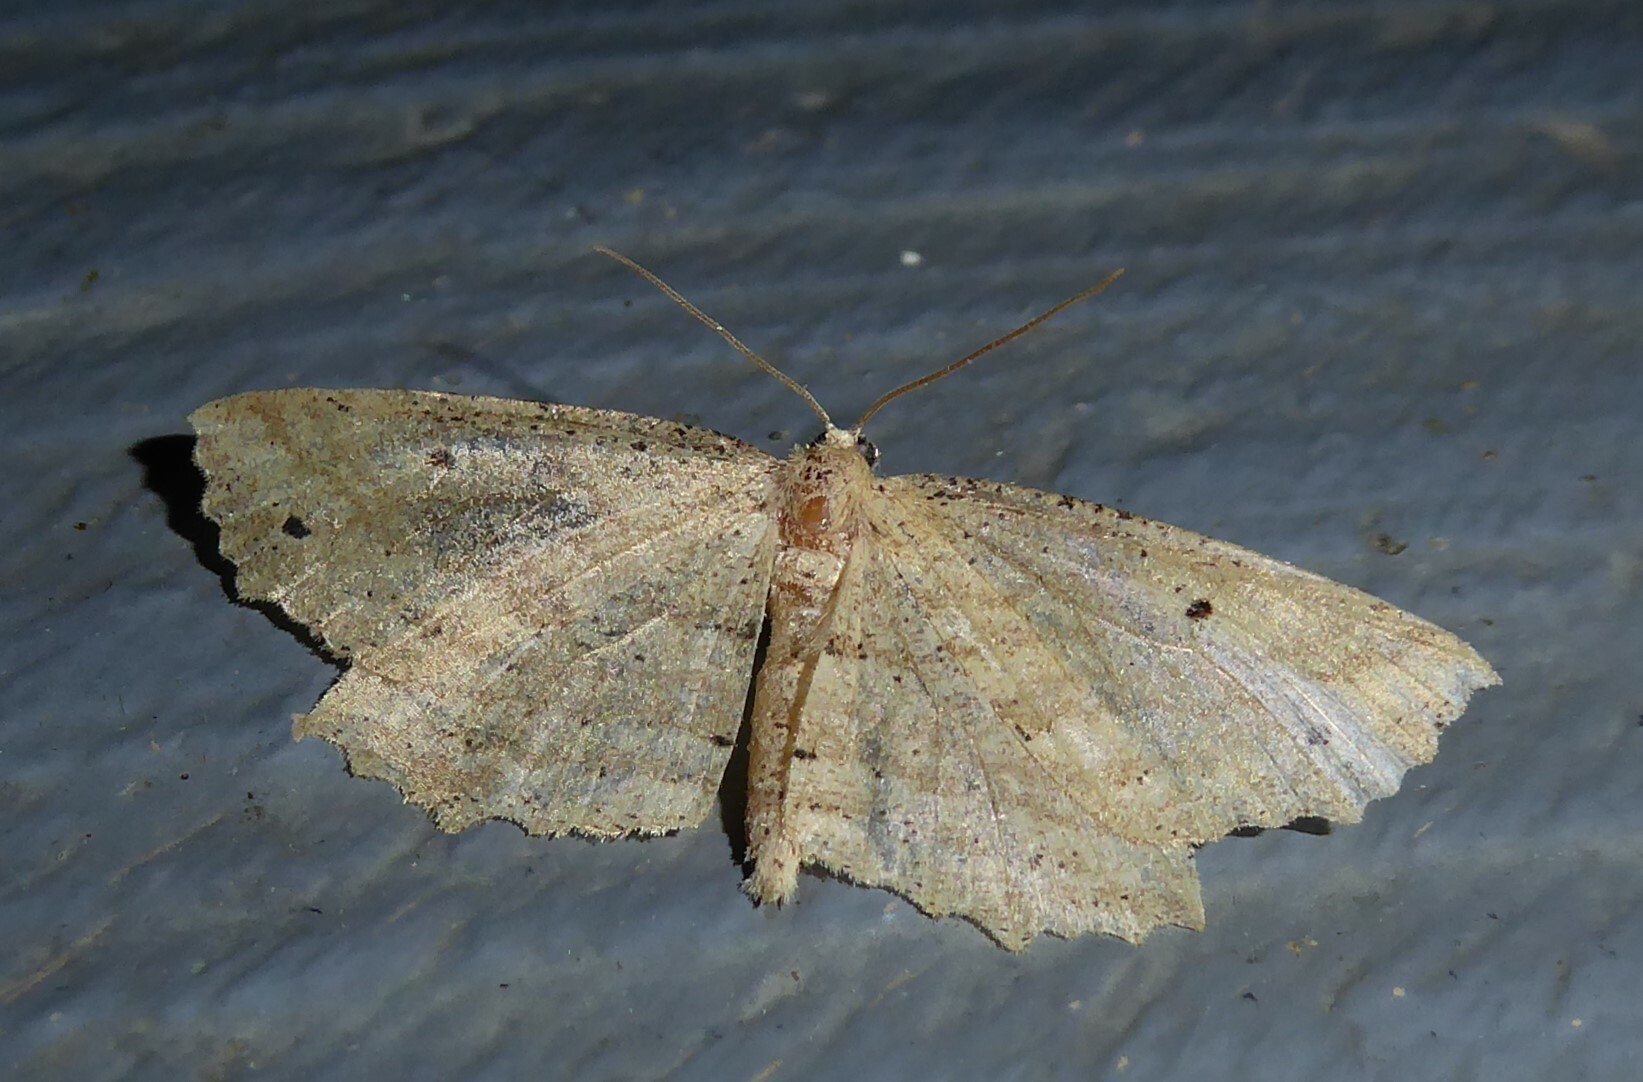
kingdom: Animalia
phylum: Arthropoda
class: Insecta
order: Lepidoptera
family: Geometridae
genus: Xyridacma
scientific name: Xyridacma veronicae
